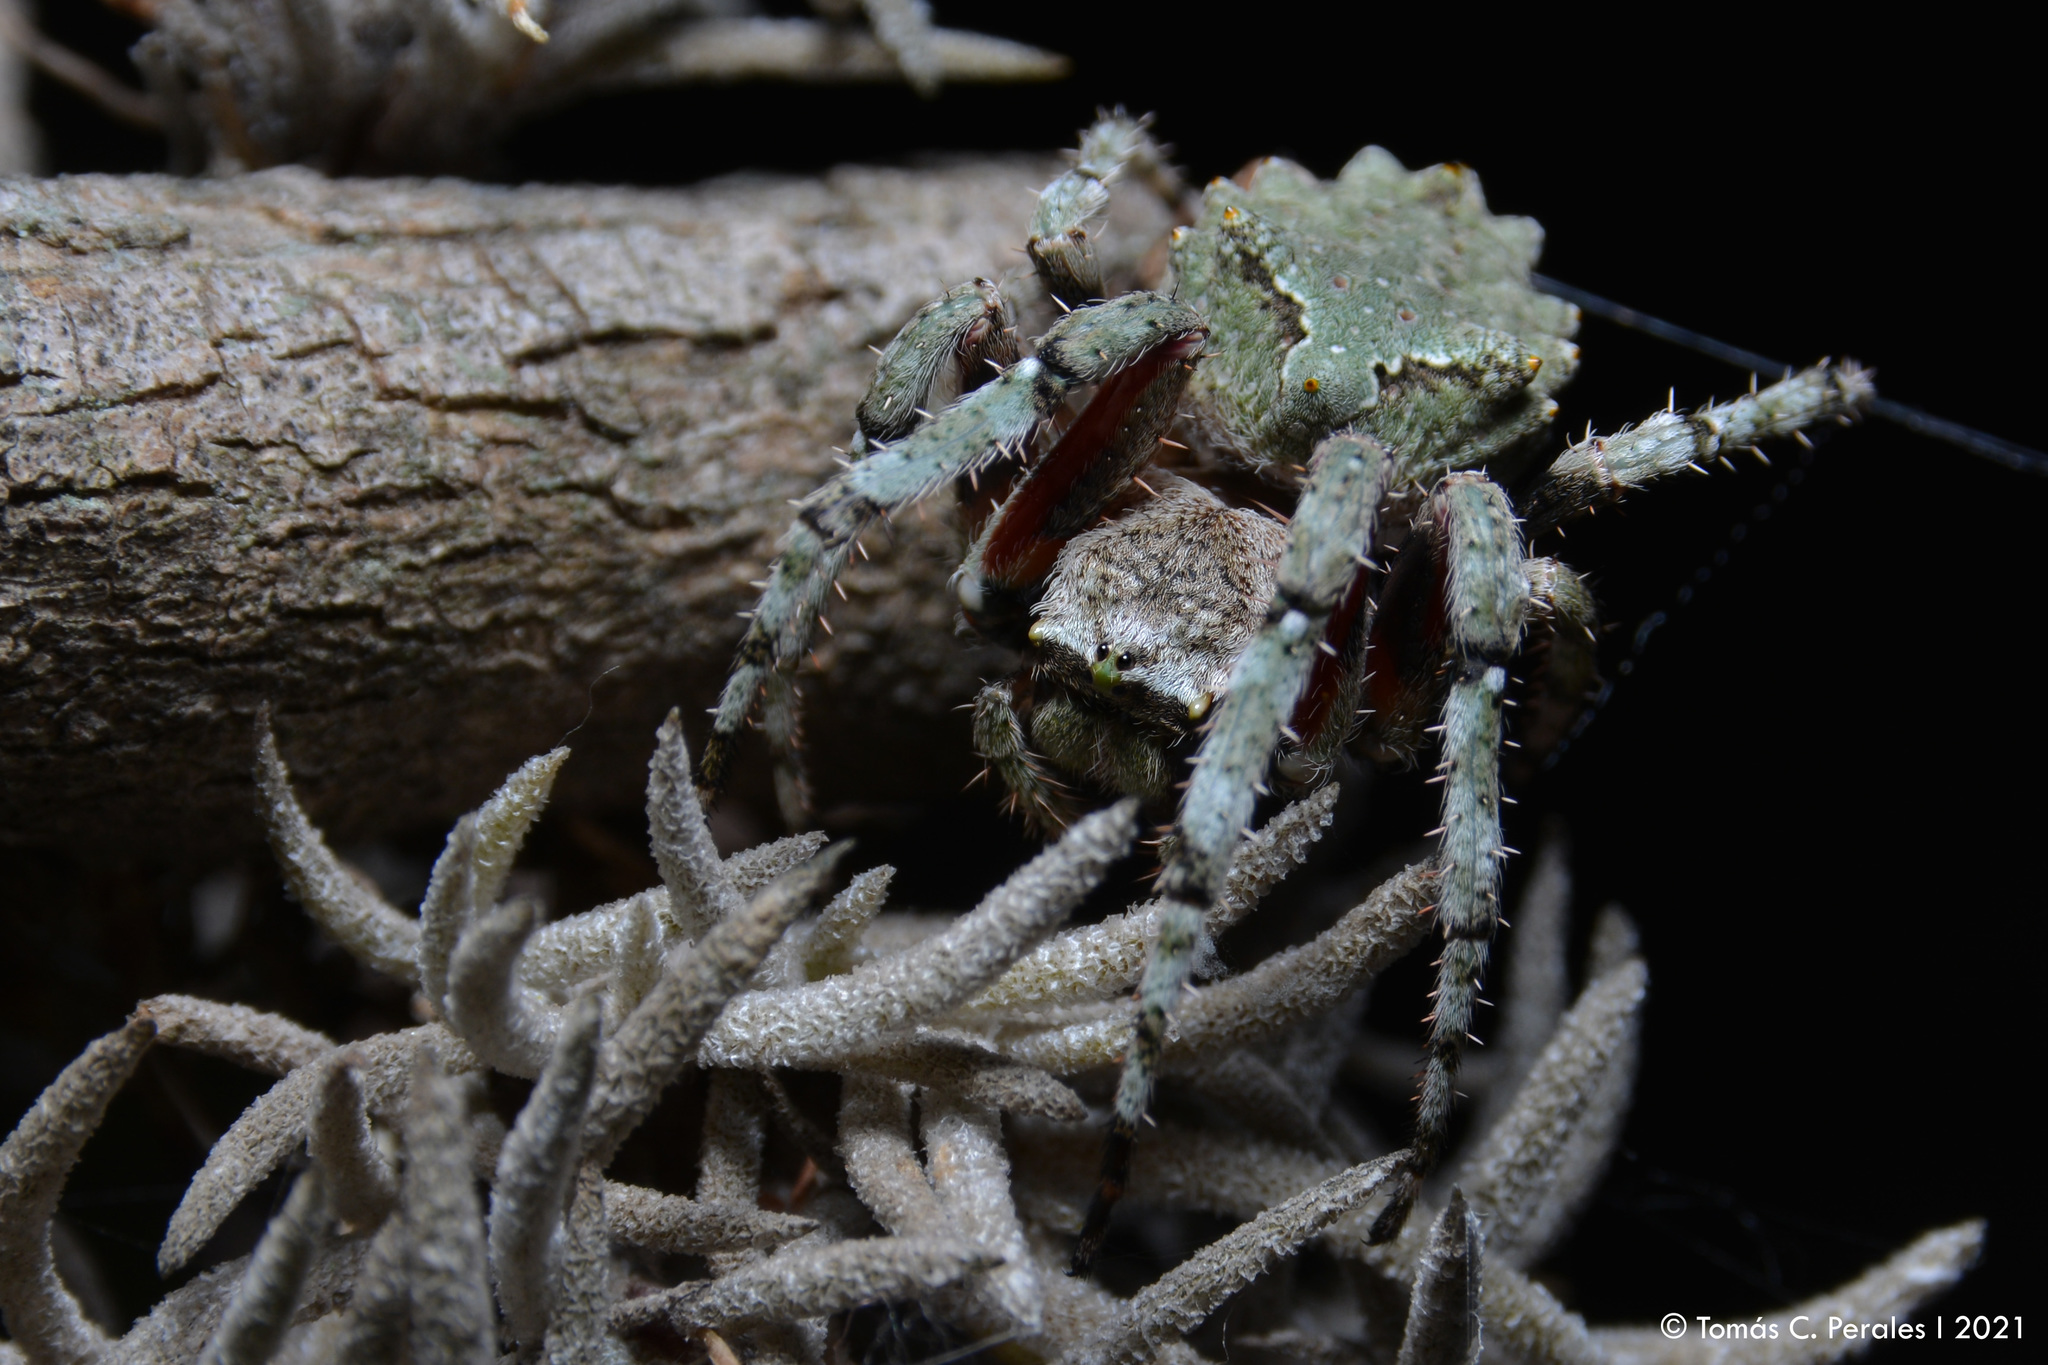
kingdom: Animalia
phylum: Arthropoda
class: Arachnida
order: Araneae
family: Araneidae
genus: Parawixia
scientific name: Parawixia audax
